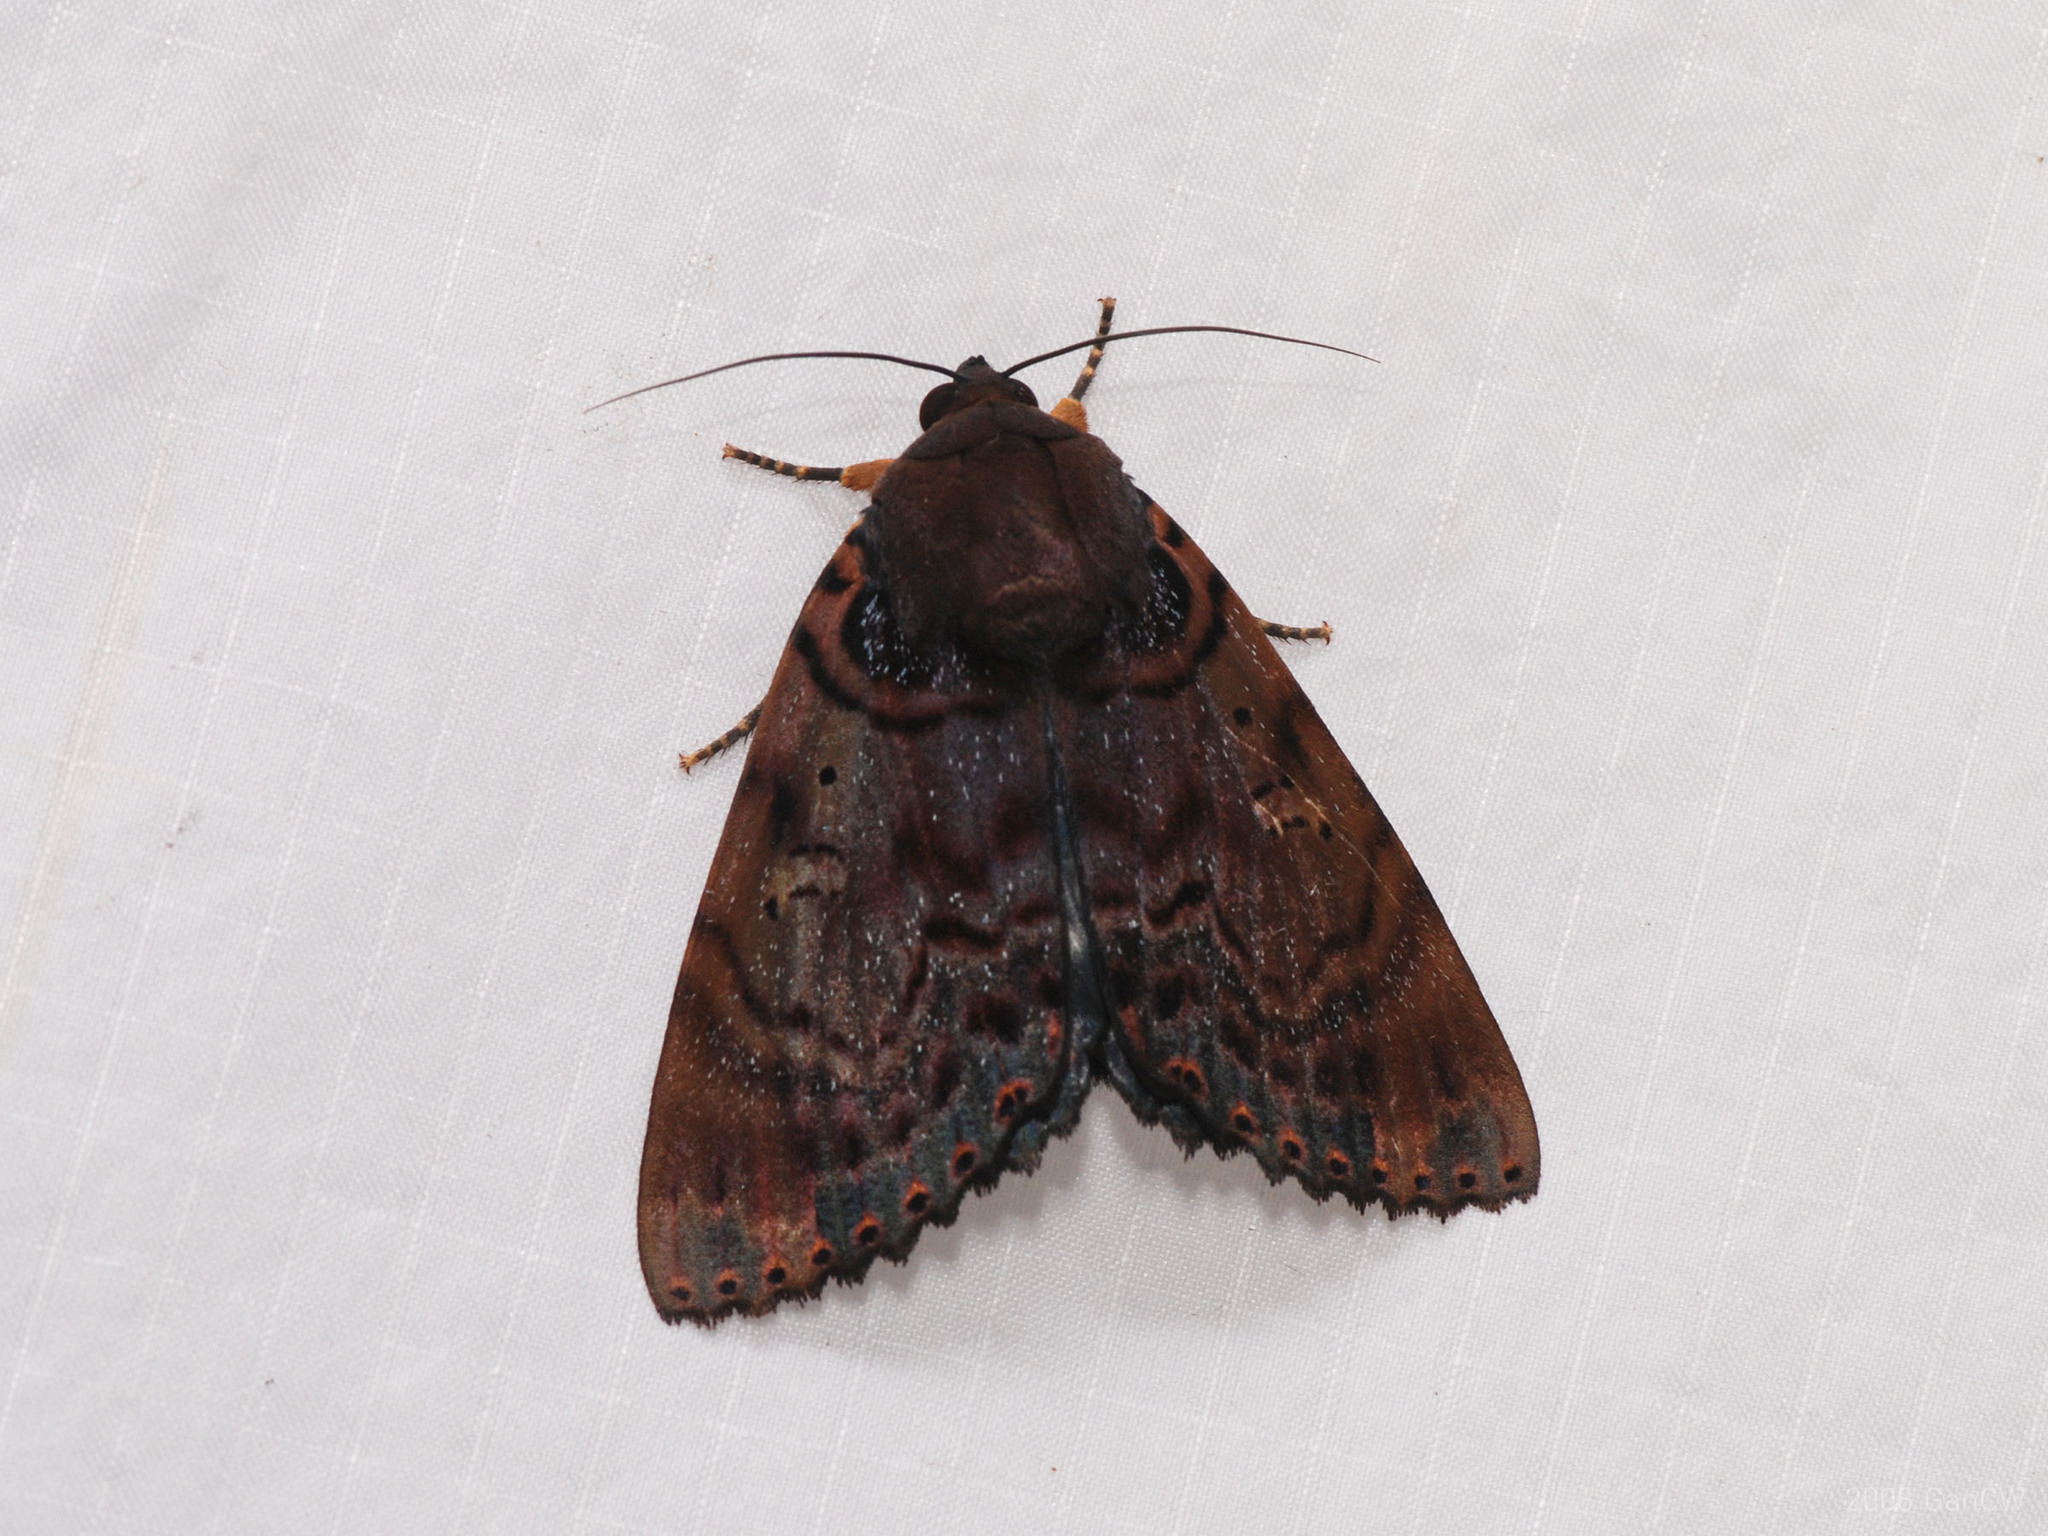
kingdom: Animalia
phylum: Arthropoda
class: Insecta
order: Lepidoptera
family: Erebidae
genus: Arcte
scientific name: Arcte modesta
